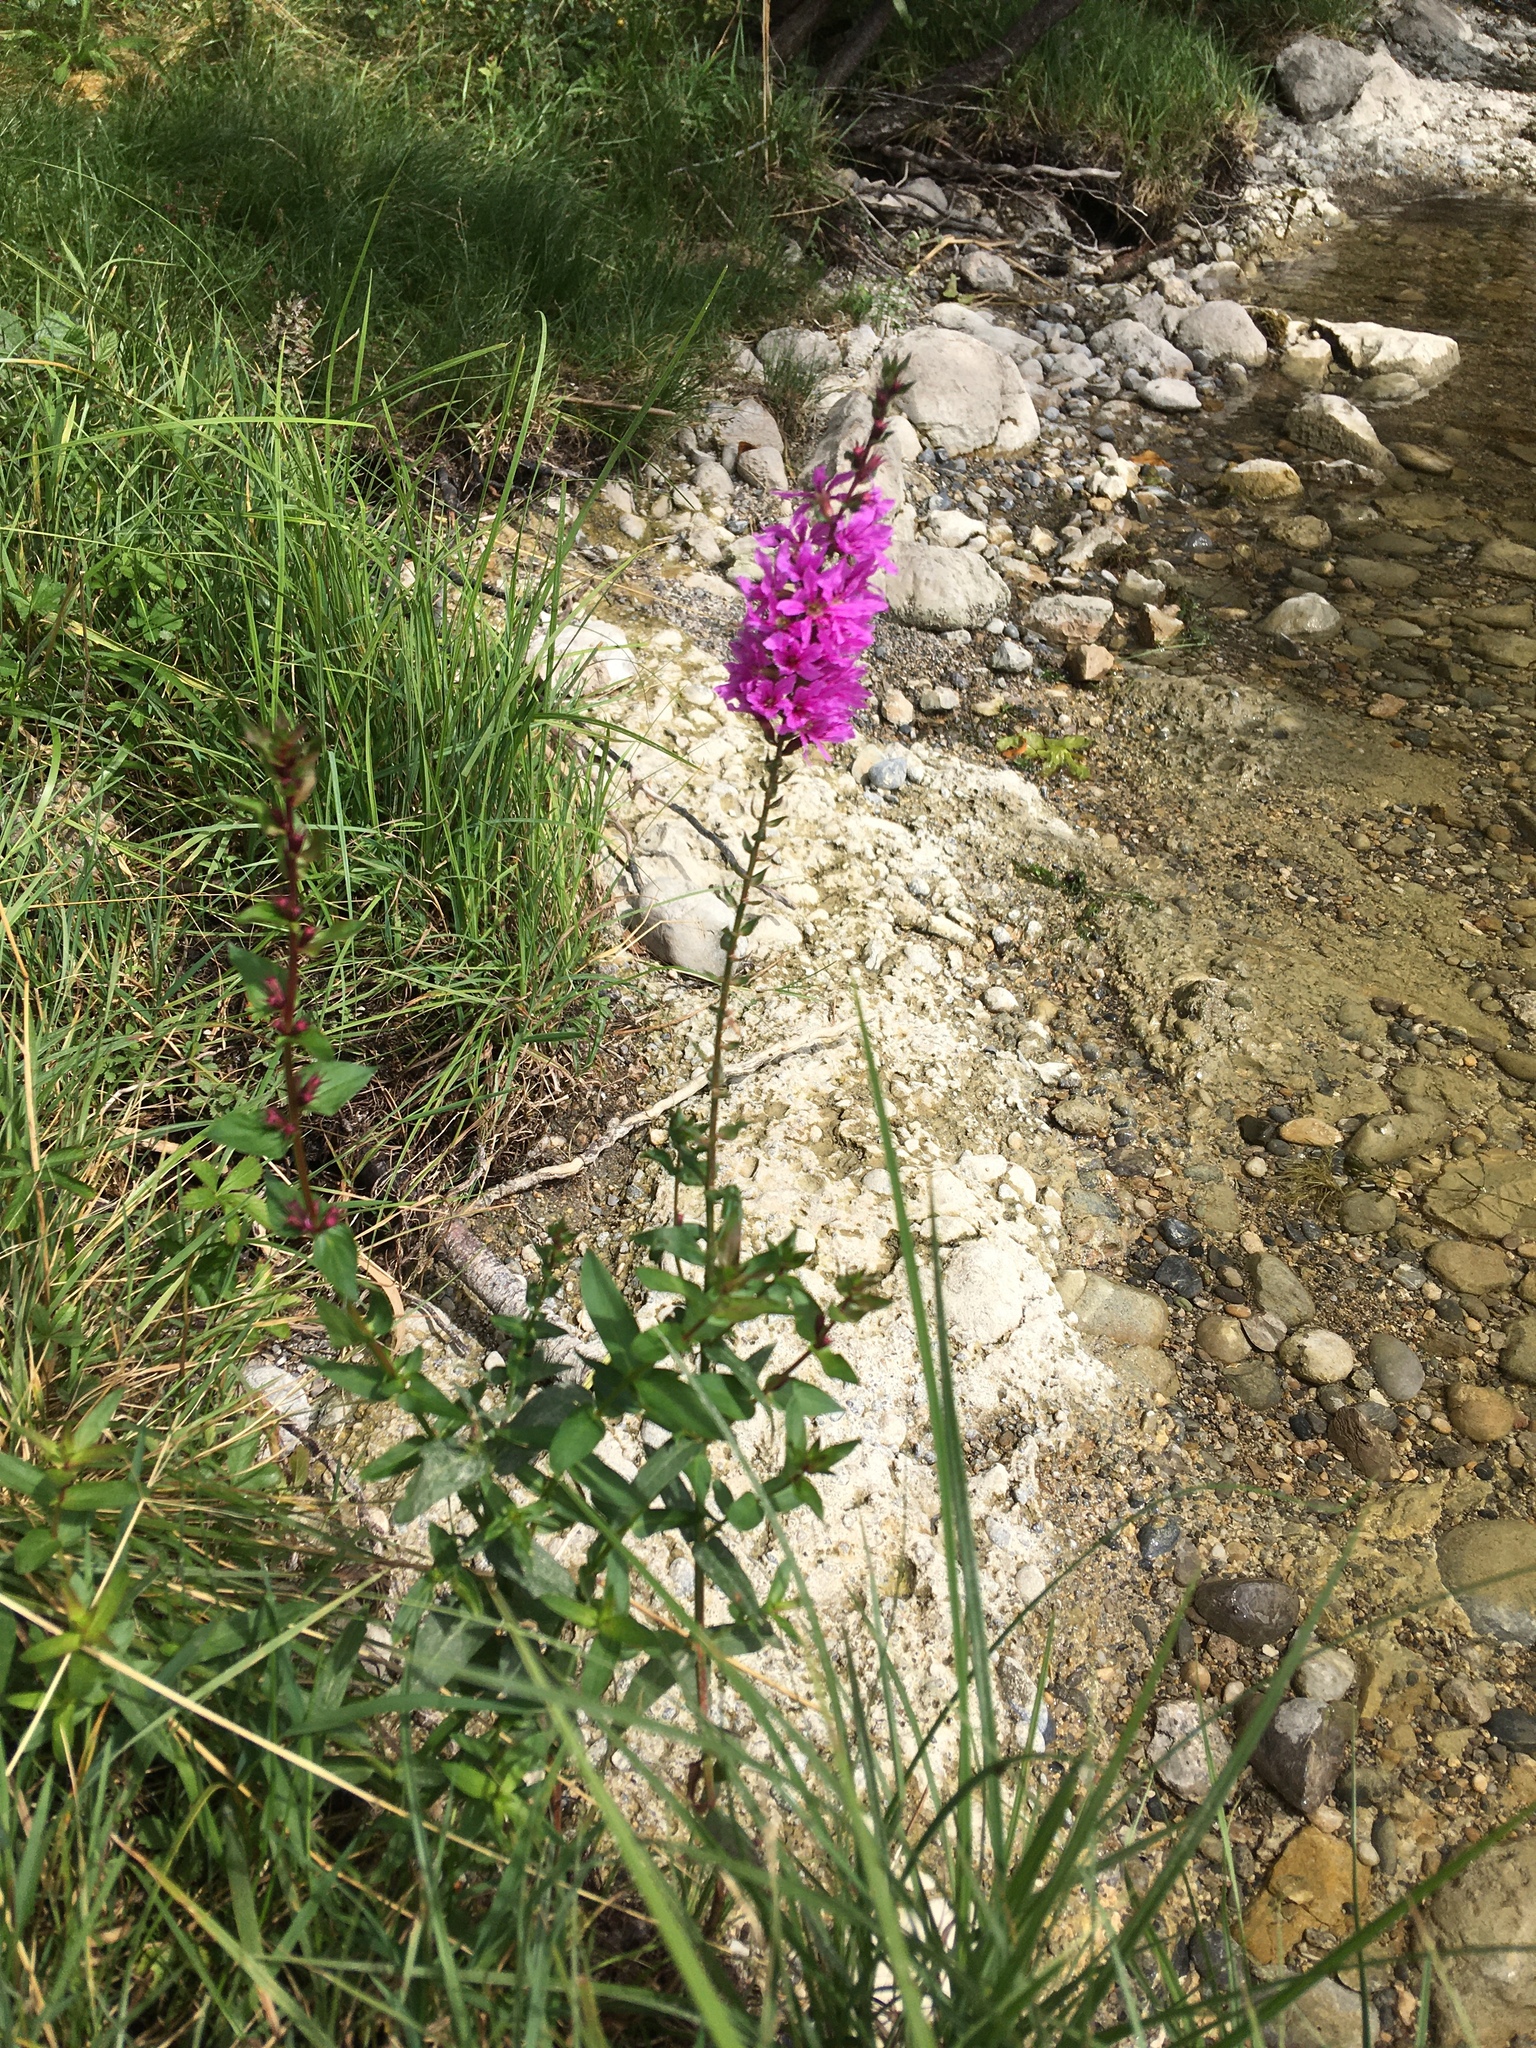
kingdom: Plantae
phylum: Tracheophyta
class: Magnoliopsida
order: Myrtales
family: Lythraceae
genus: Lythrum
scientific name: Lythrum salicaria
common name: Purple loosestrife
